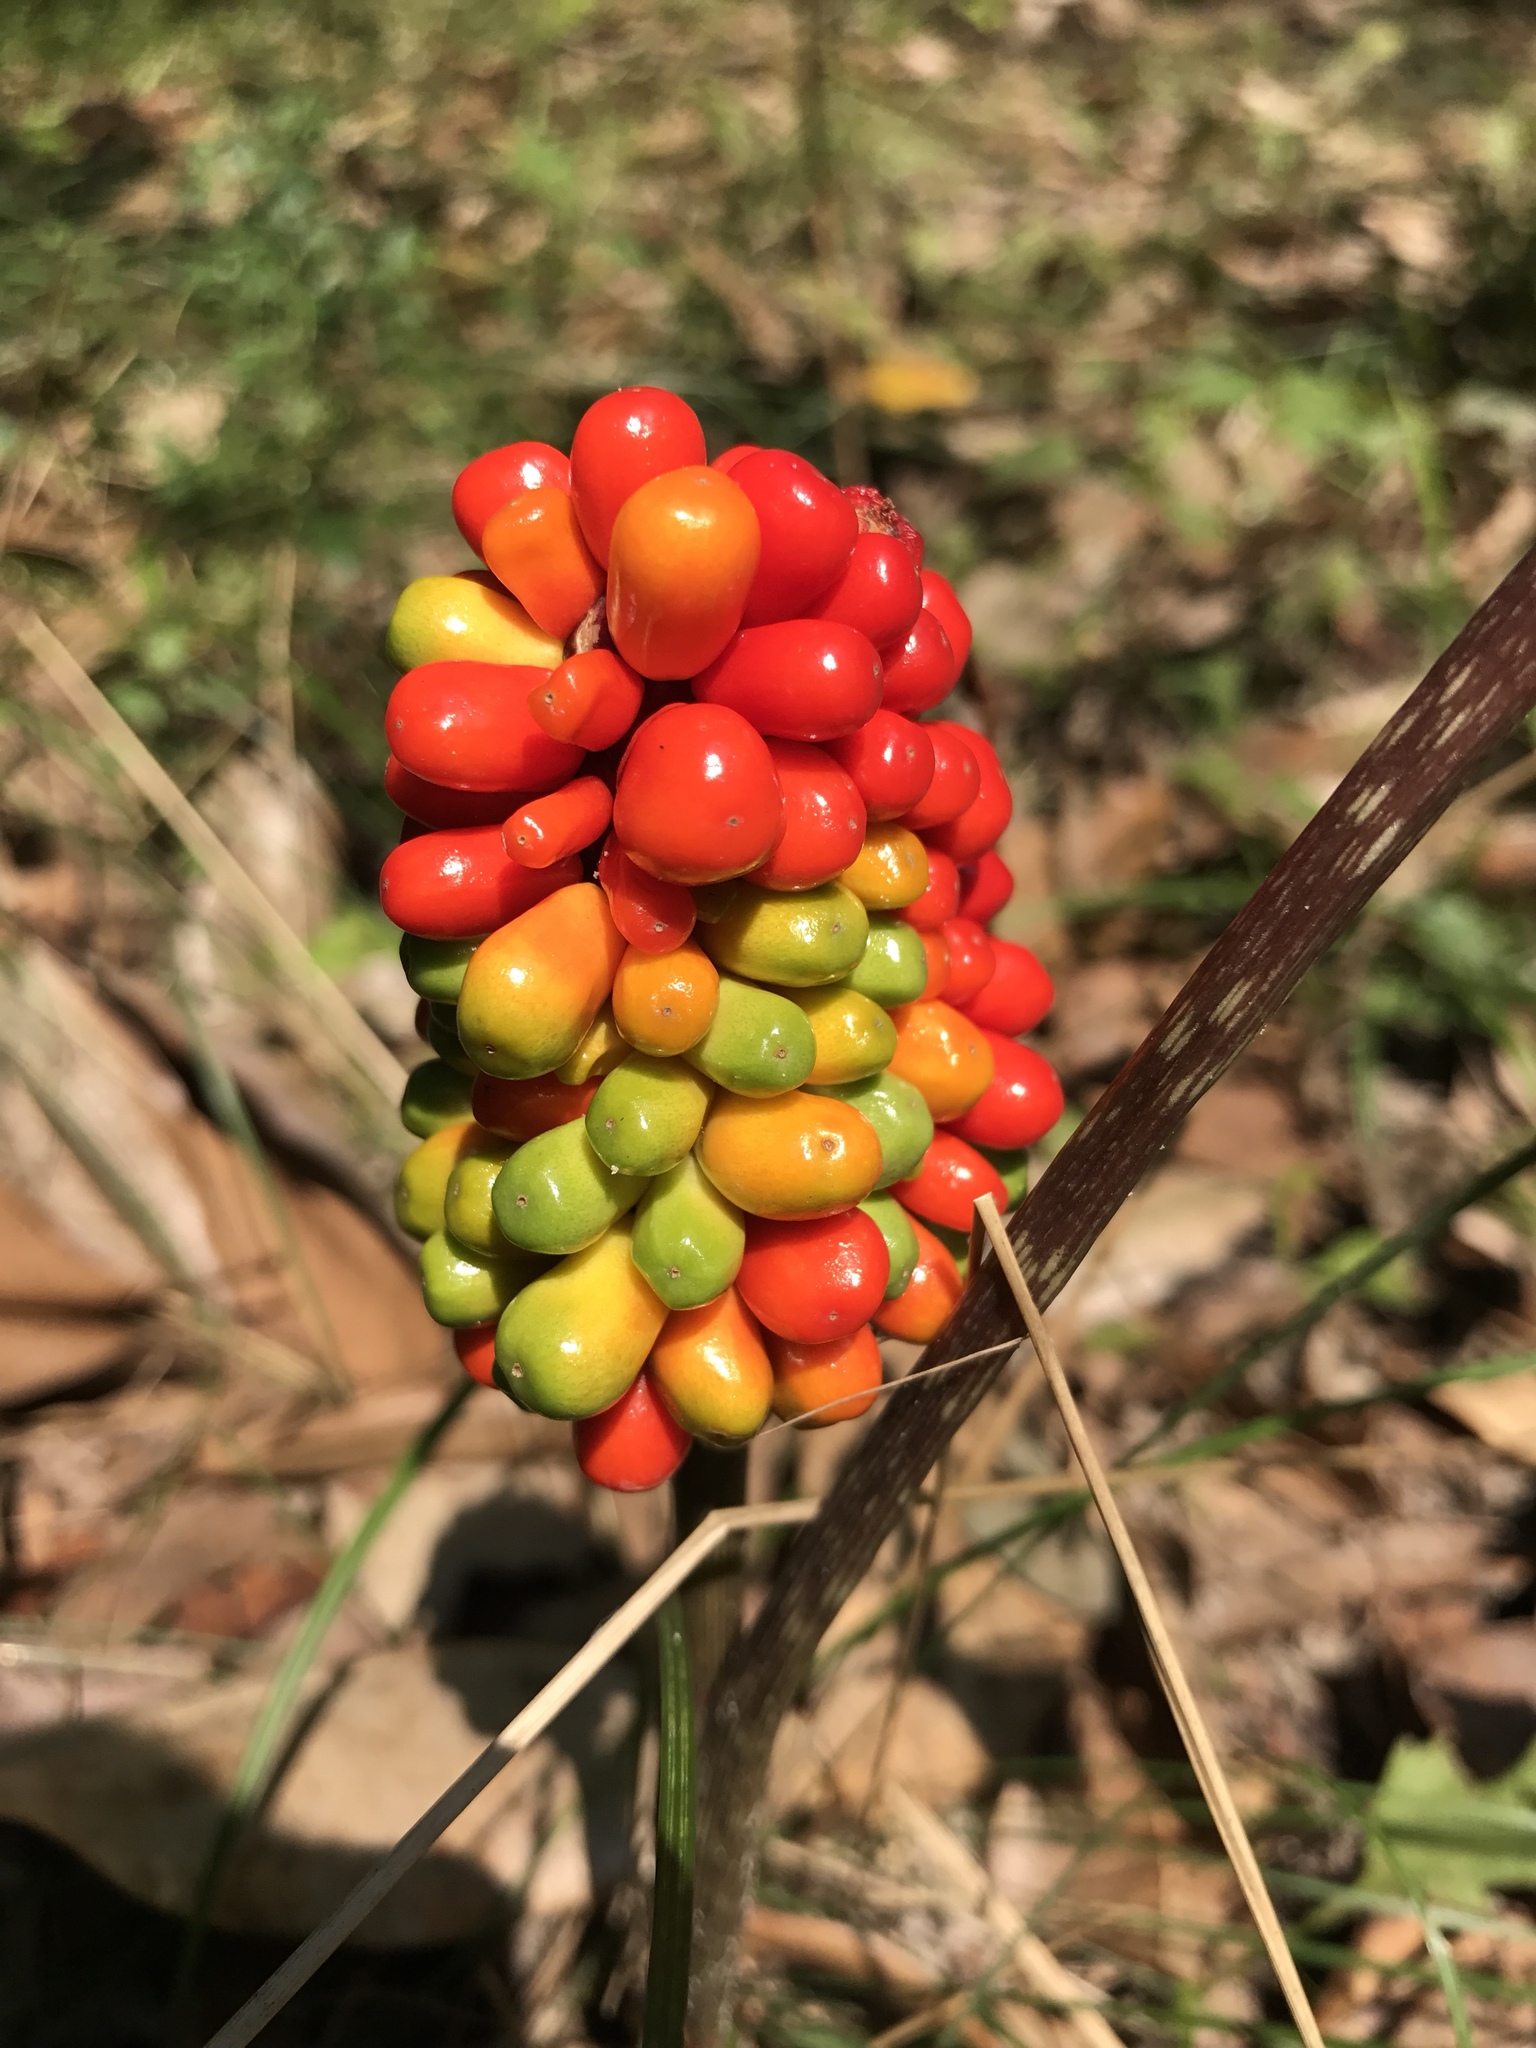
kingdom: Plantae
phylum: Tracheophyta
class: Liliopsida
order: Alismatales
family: Araceae
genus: Arisaema
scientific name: Arisaema triphyllum
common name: Jack-in-the-pulpit
